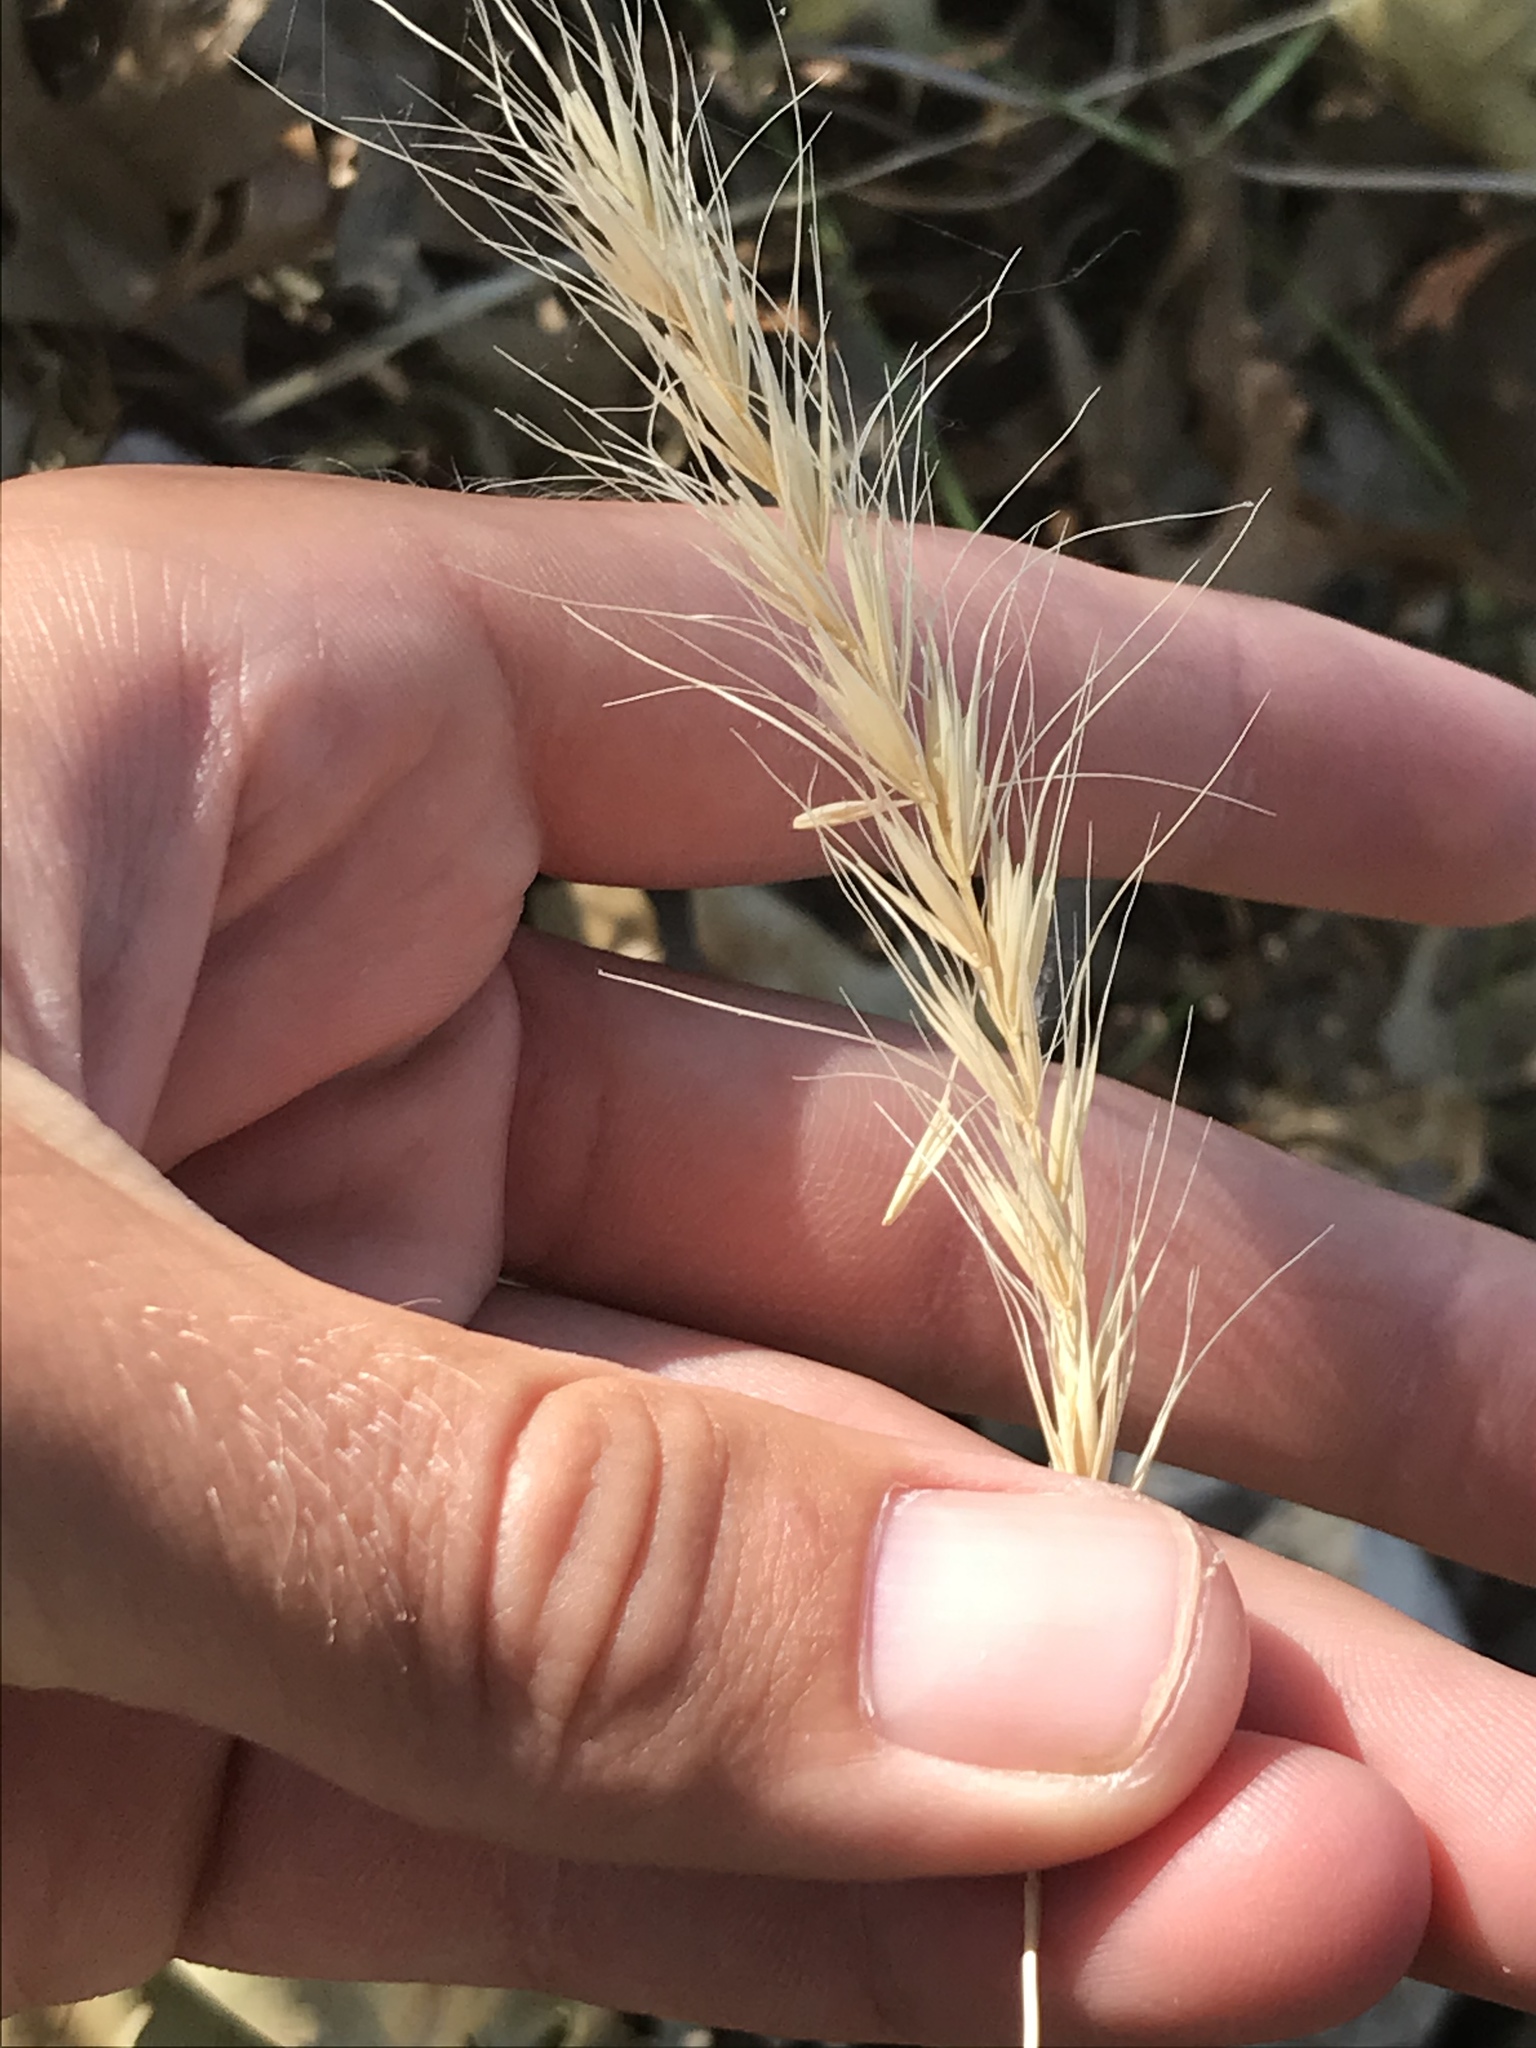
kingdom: Plantae
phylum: Tracheophyta
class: Liliopsida
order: Poales
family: Poaceae
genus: Elymus
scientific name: Elymus canadensis
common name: Canada wild rye
